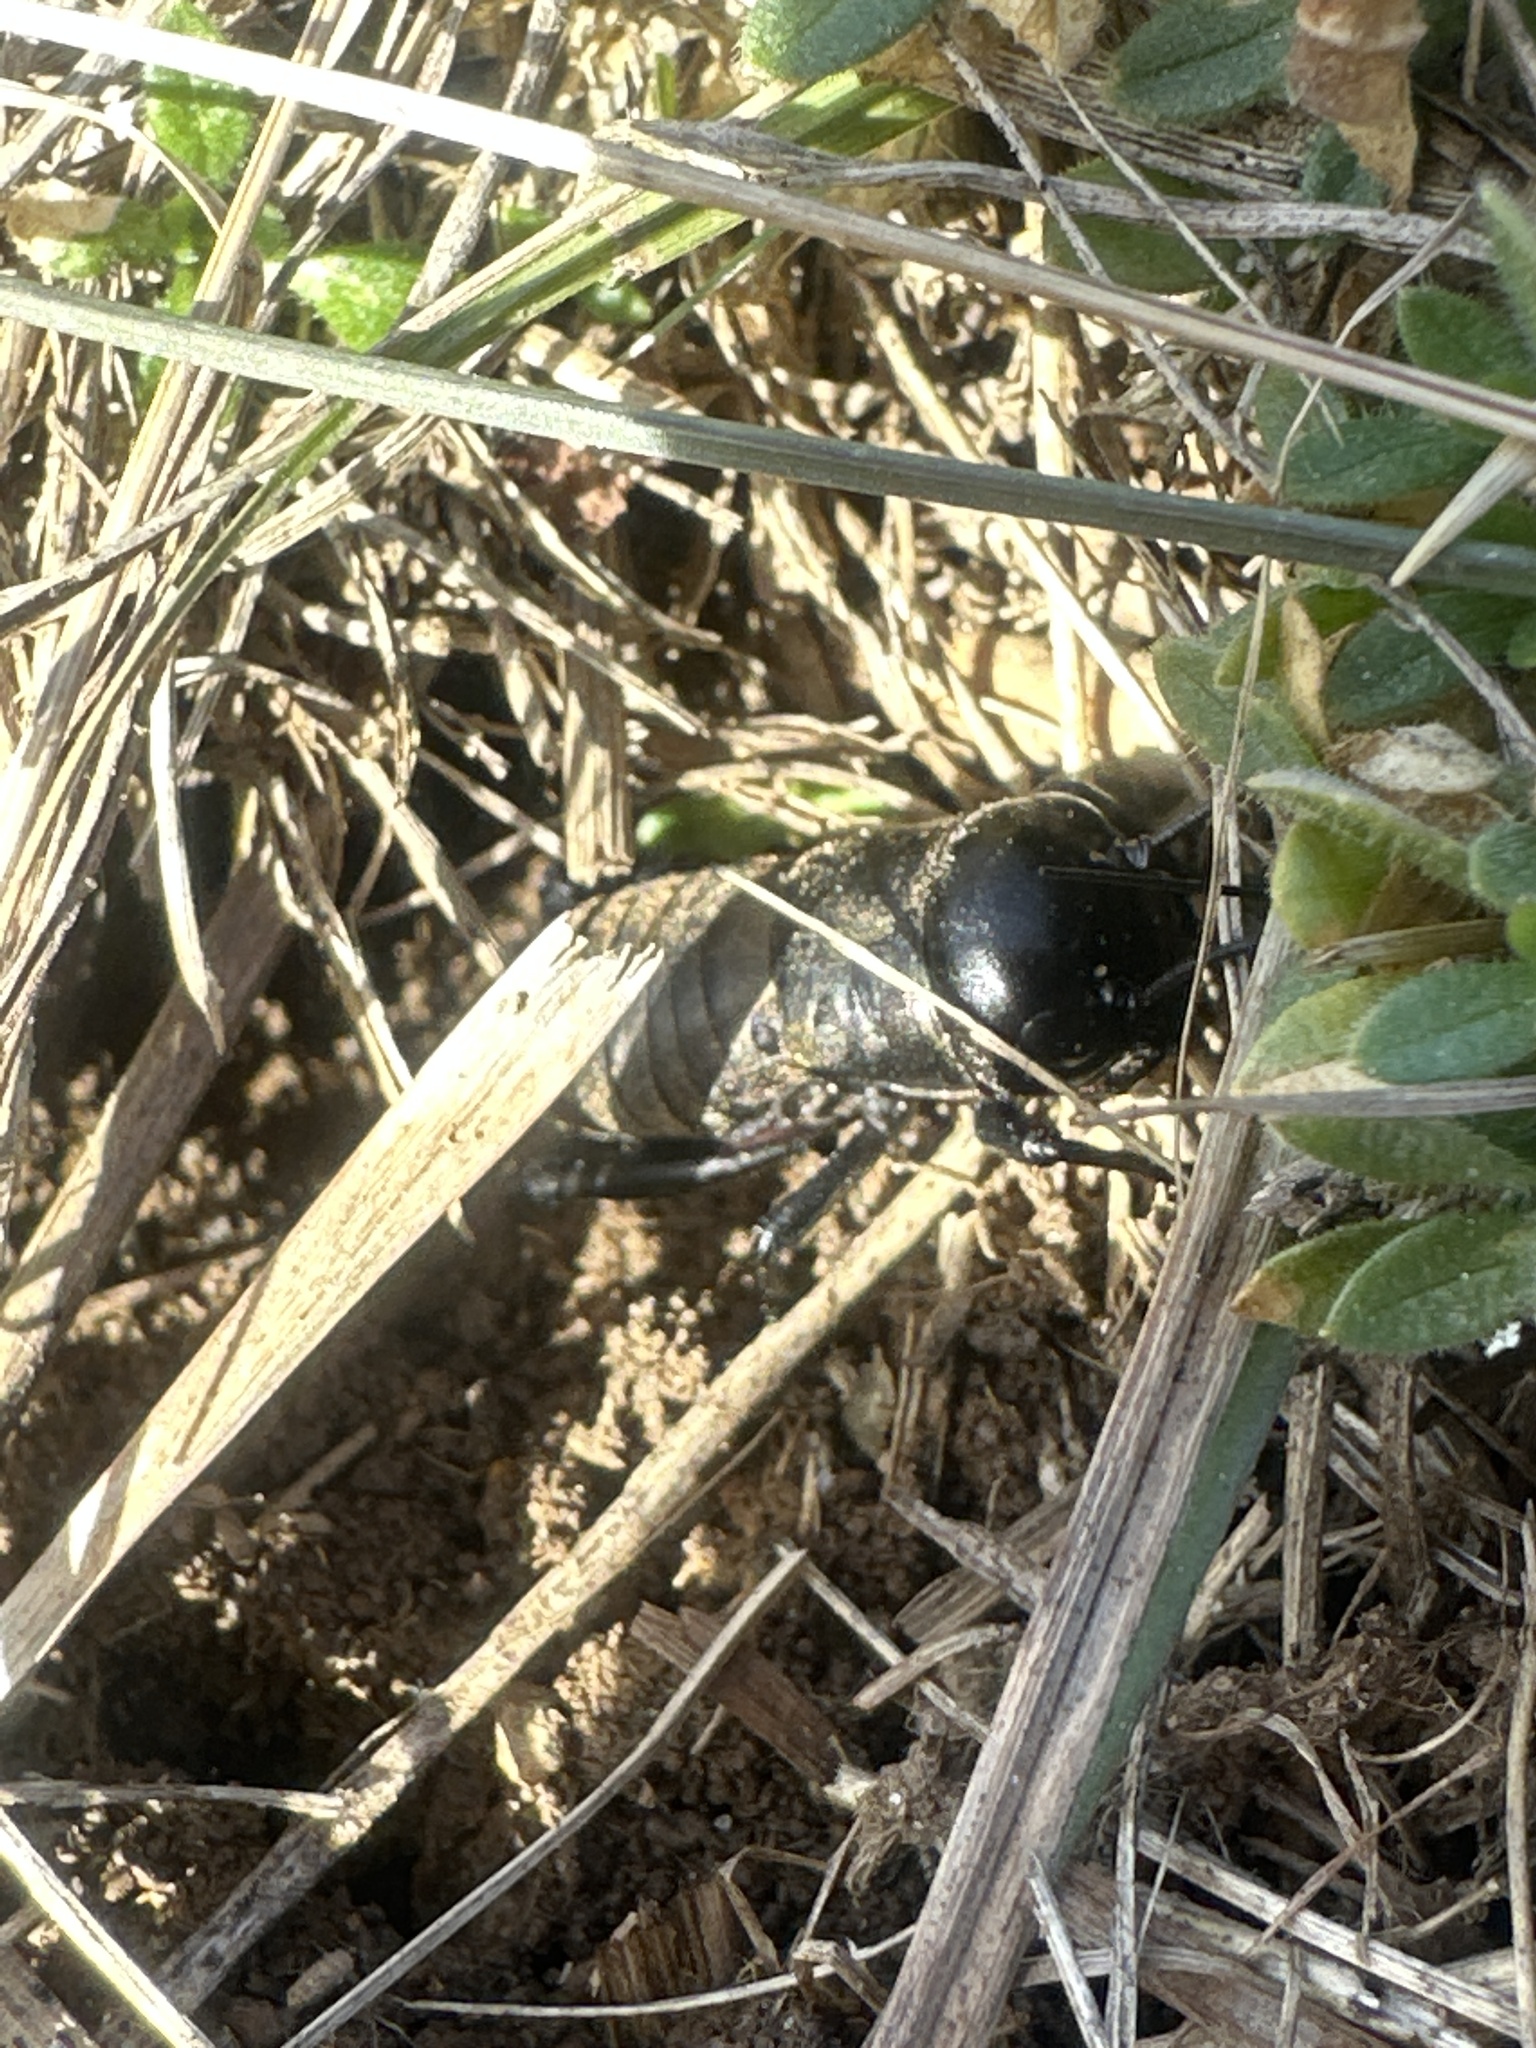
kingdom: Animalia
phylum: Arthropoda
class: Insecta
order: Orthoptera
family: Gryllidae
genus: Gryllus
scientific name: Gryllus campestris
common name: Field cricket
